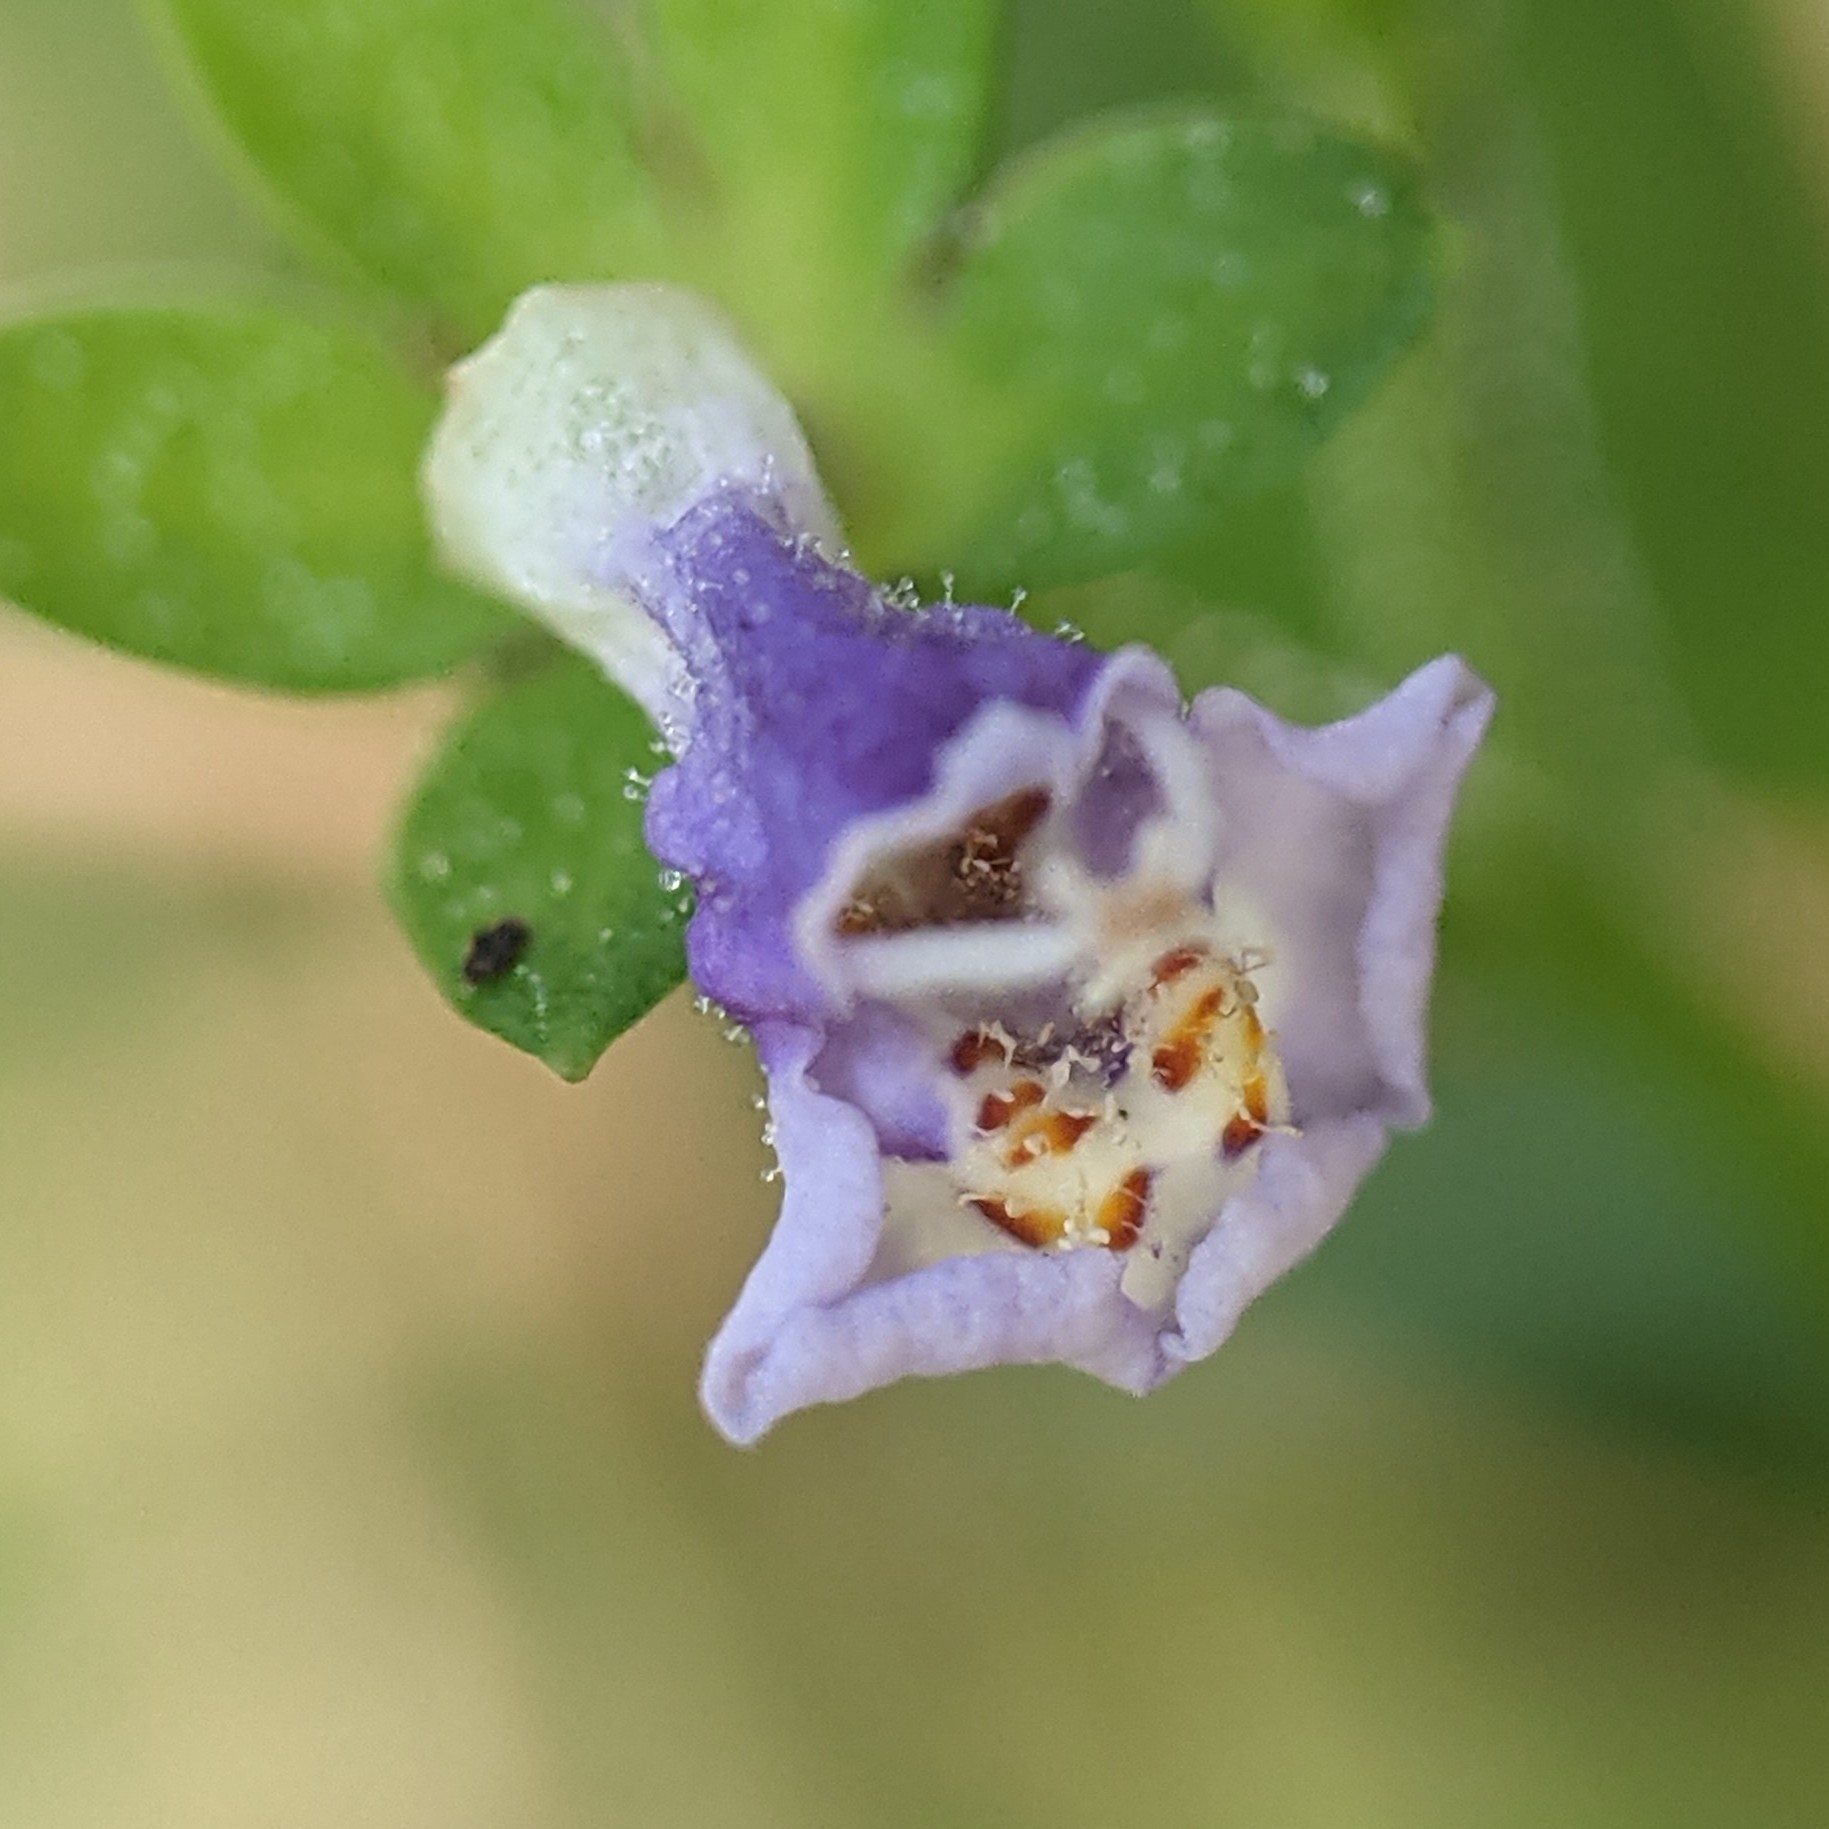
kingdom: Plantae
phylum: Tracheophyta
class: Magnoliopsida
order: Lamiales
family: Mazaceae
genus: Mazus
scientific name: Mazus pumilus
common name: Japanese mazus
